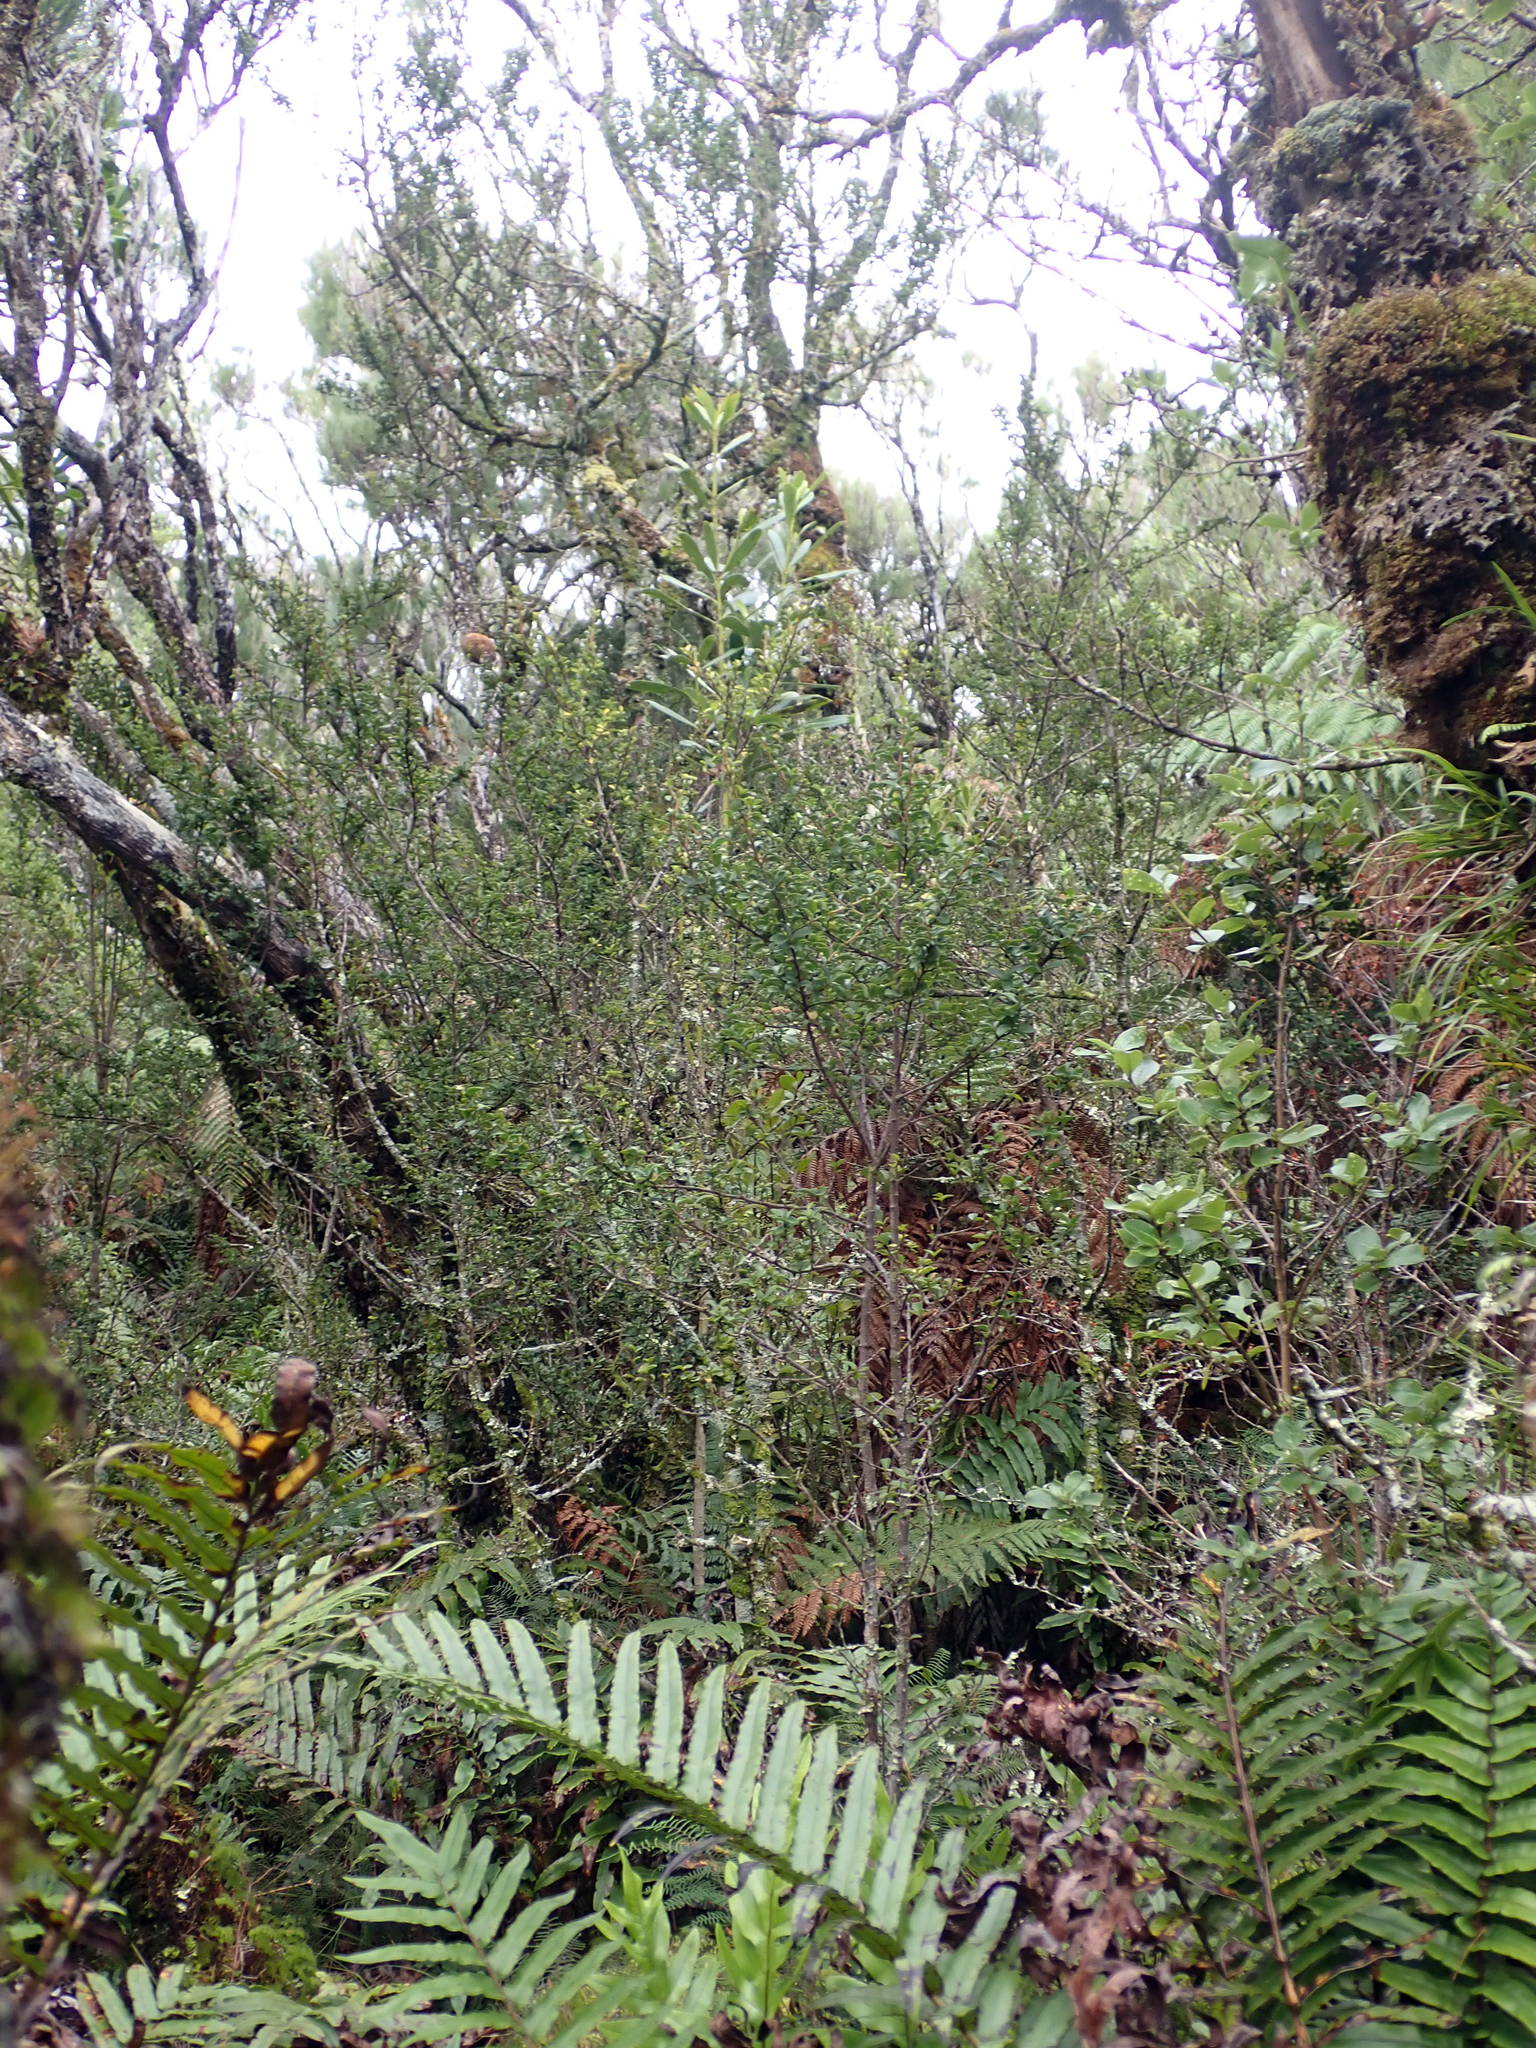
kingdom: Plantae
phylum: Tracheophyta
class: Magnoliopsida
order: Ericales
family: Primulaceae
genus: Myrsine
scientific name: Myrsine coxii
